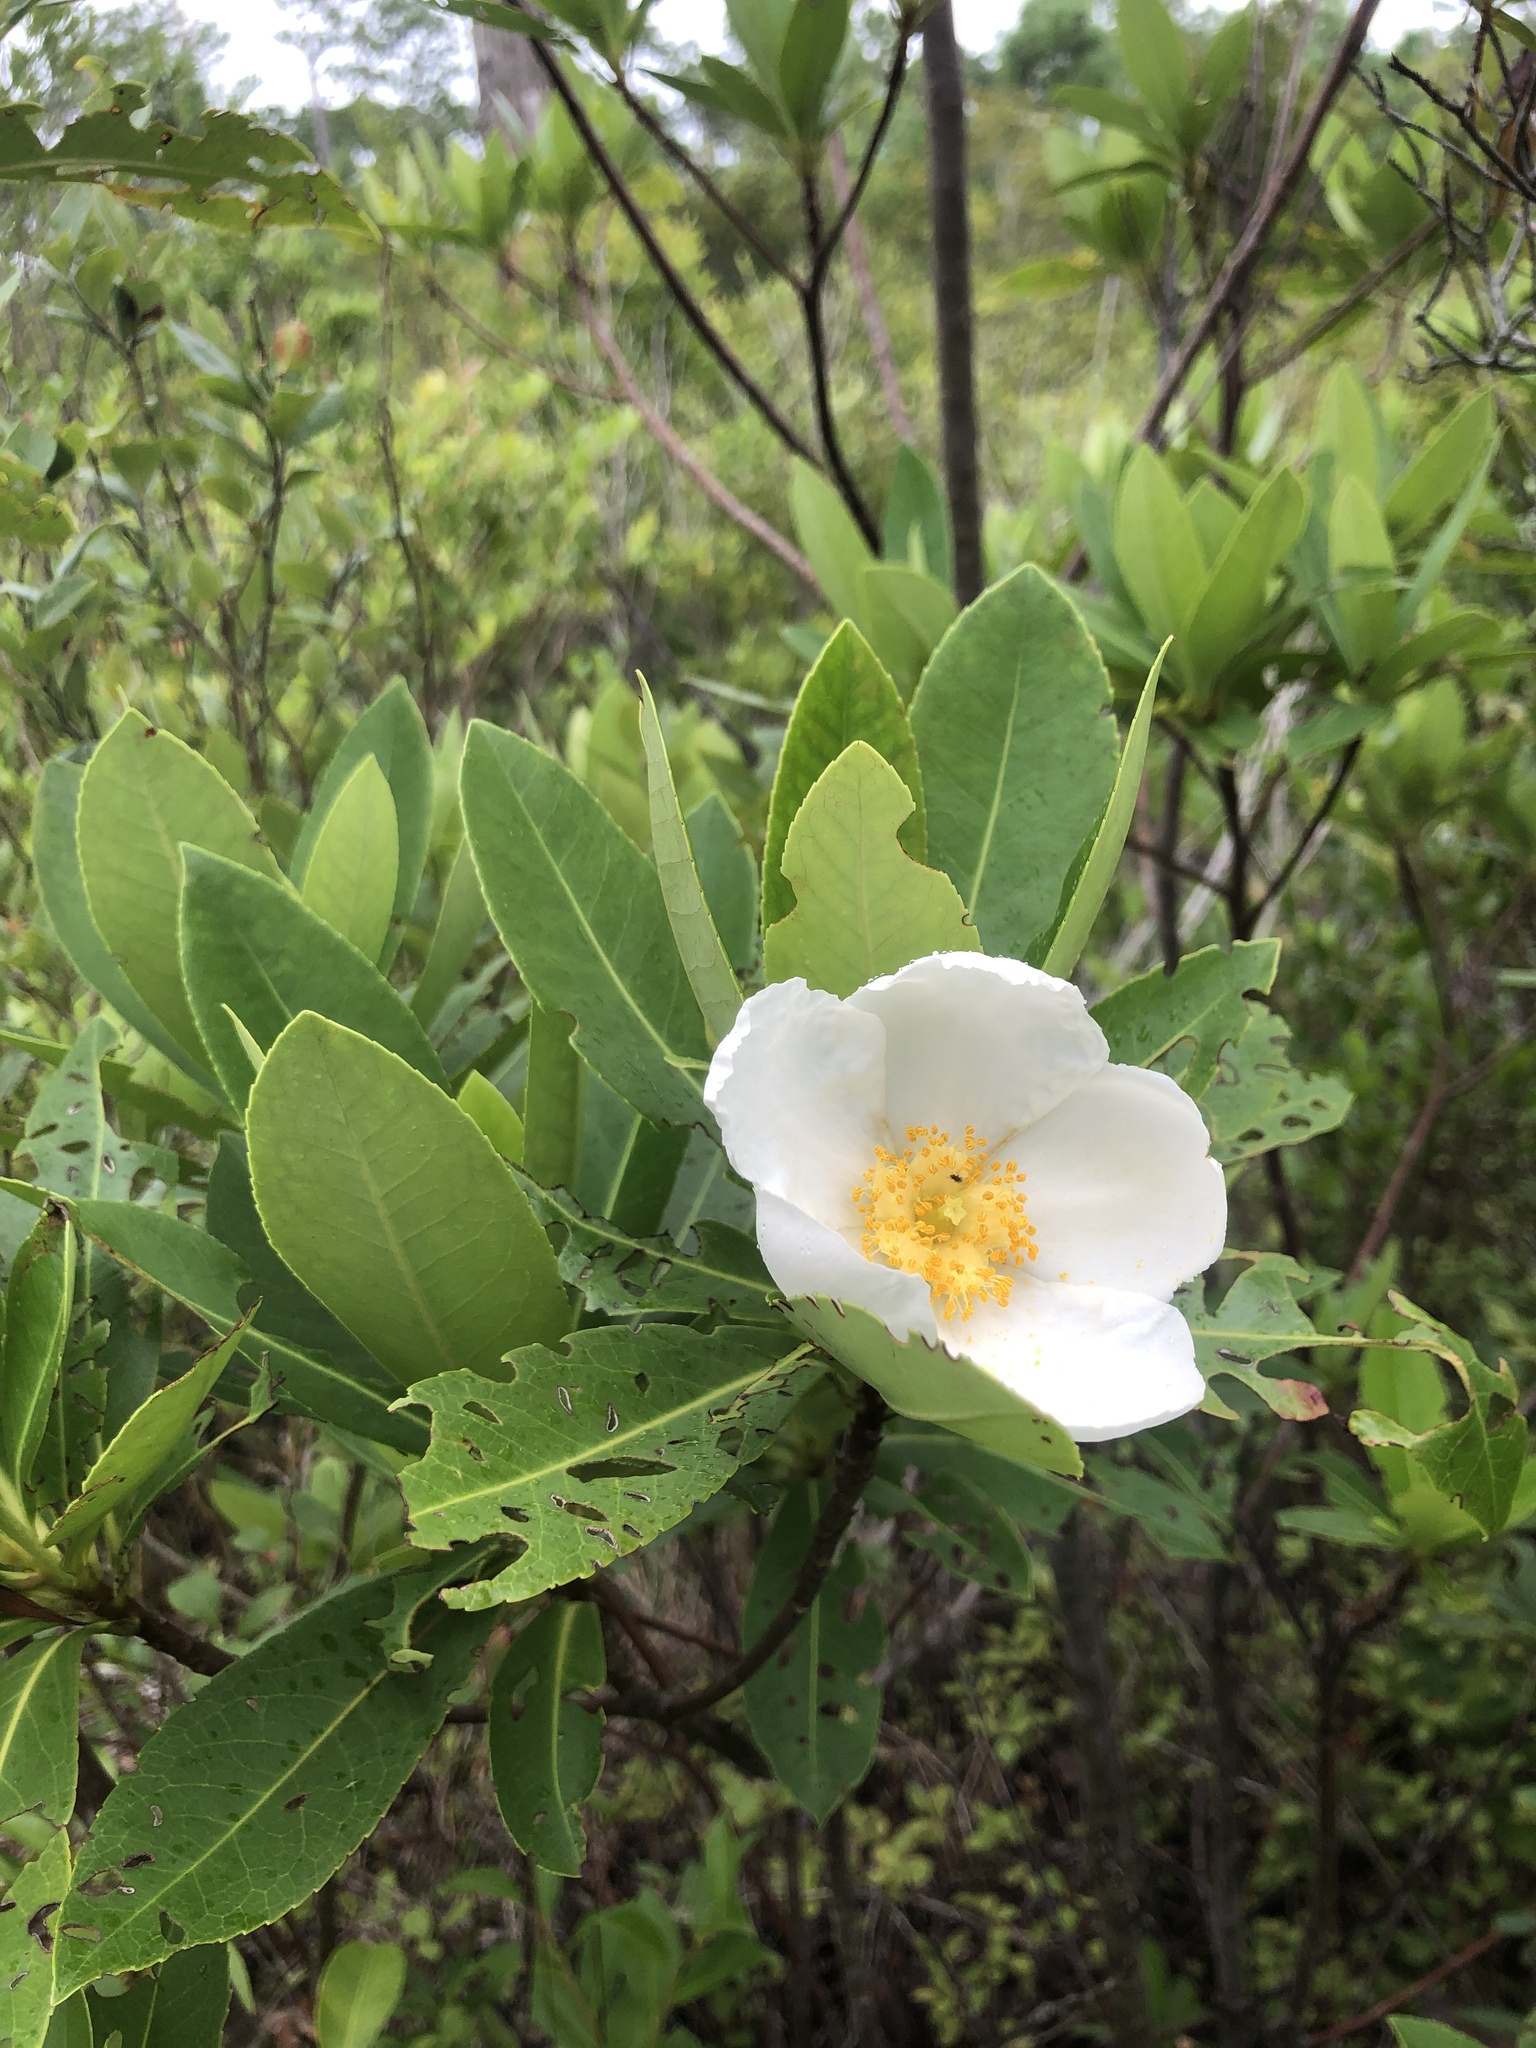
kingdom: Plantae
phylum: Tracheophyta
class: Magnoliopsida
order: Ericales
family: Theaceae
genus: Gordonia
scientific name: Gordonia lasianthus
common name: Loblolly bay
